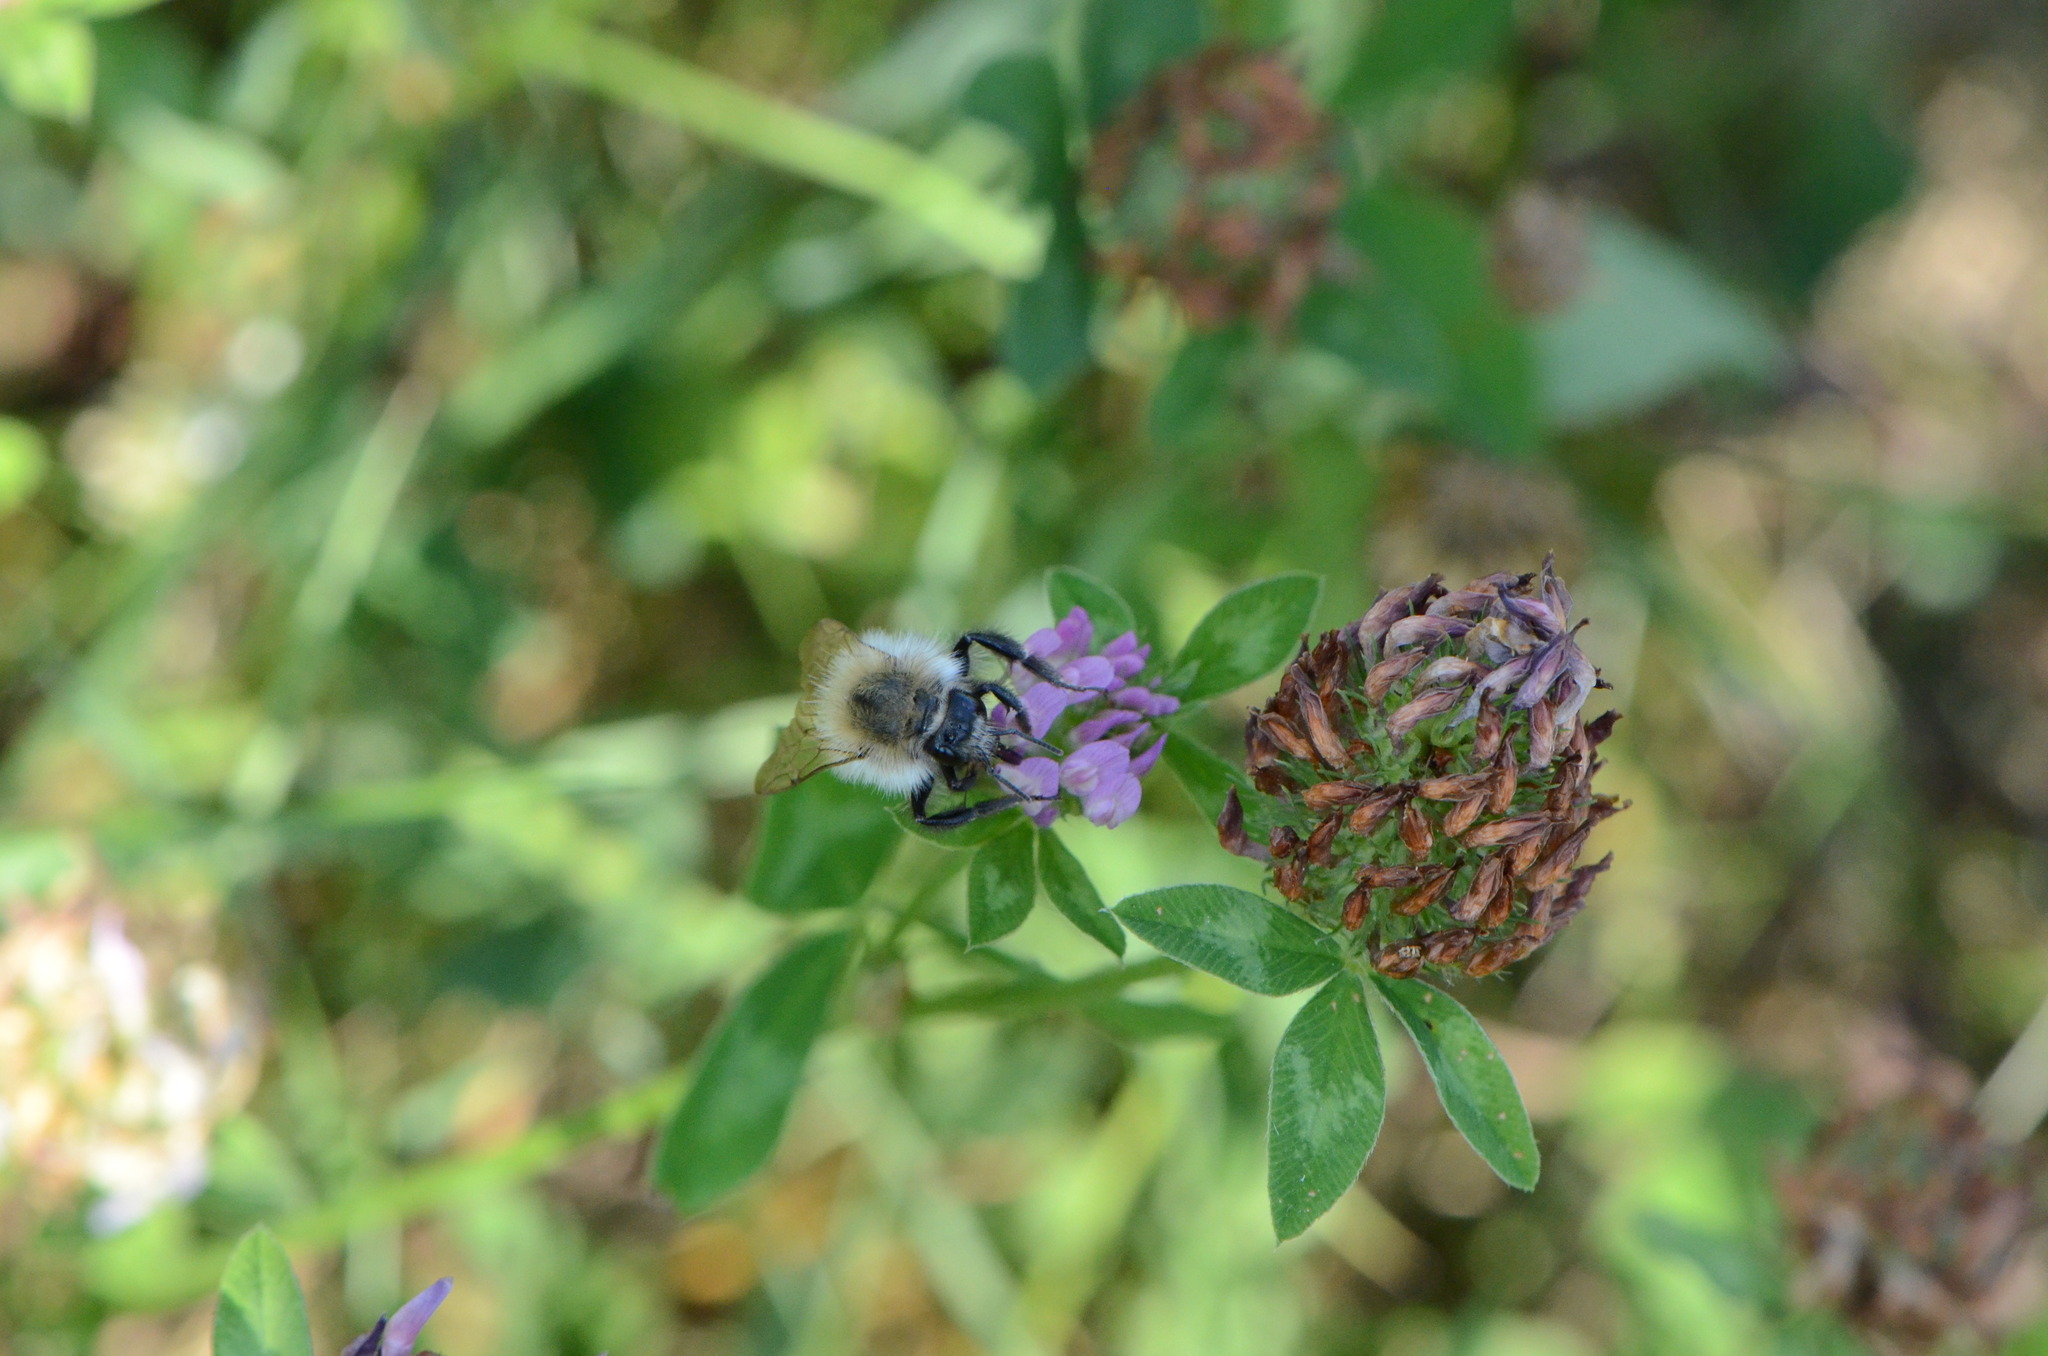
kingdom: Animalia
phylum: Arthropoda
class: Insecta
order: Hymenoptera
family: Apidae
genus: Bombus
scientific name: Bombus pascuorum
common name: Common carder bee
